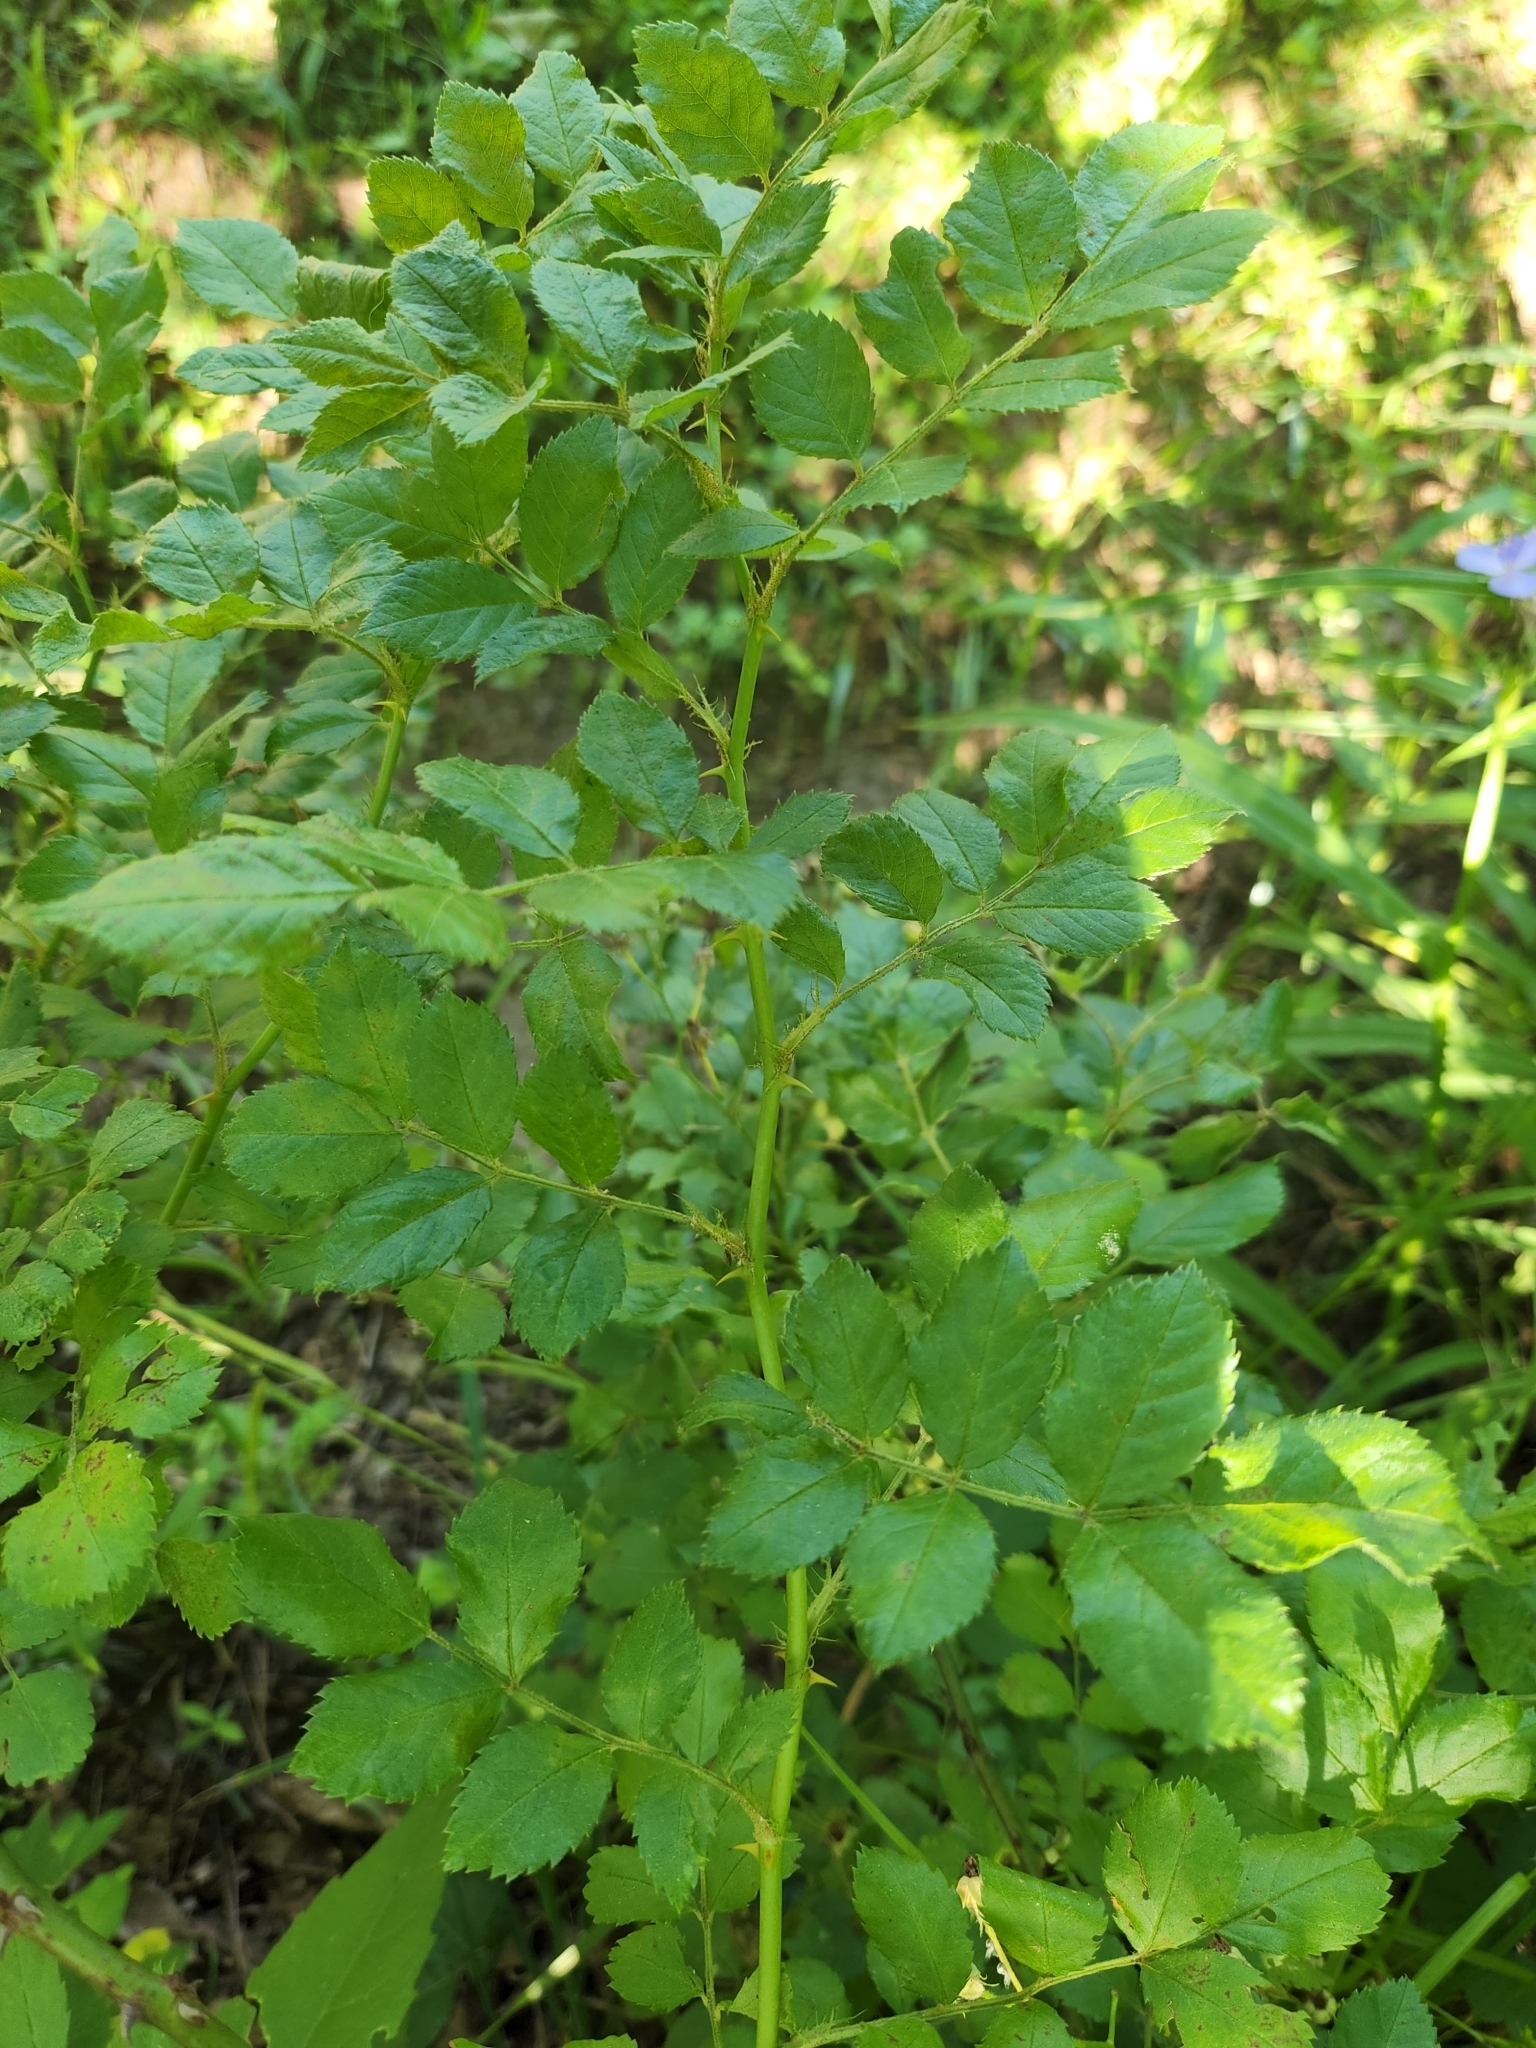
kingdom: Plantae
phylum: Tracheophyta
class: Magnoliopsida
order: Rosales
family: Rosaceae
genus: Rosa
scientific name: Rosa multiflora
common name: Multiflora rose
